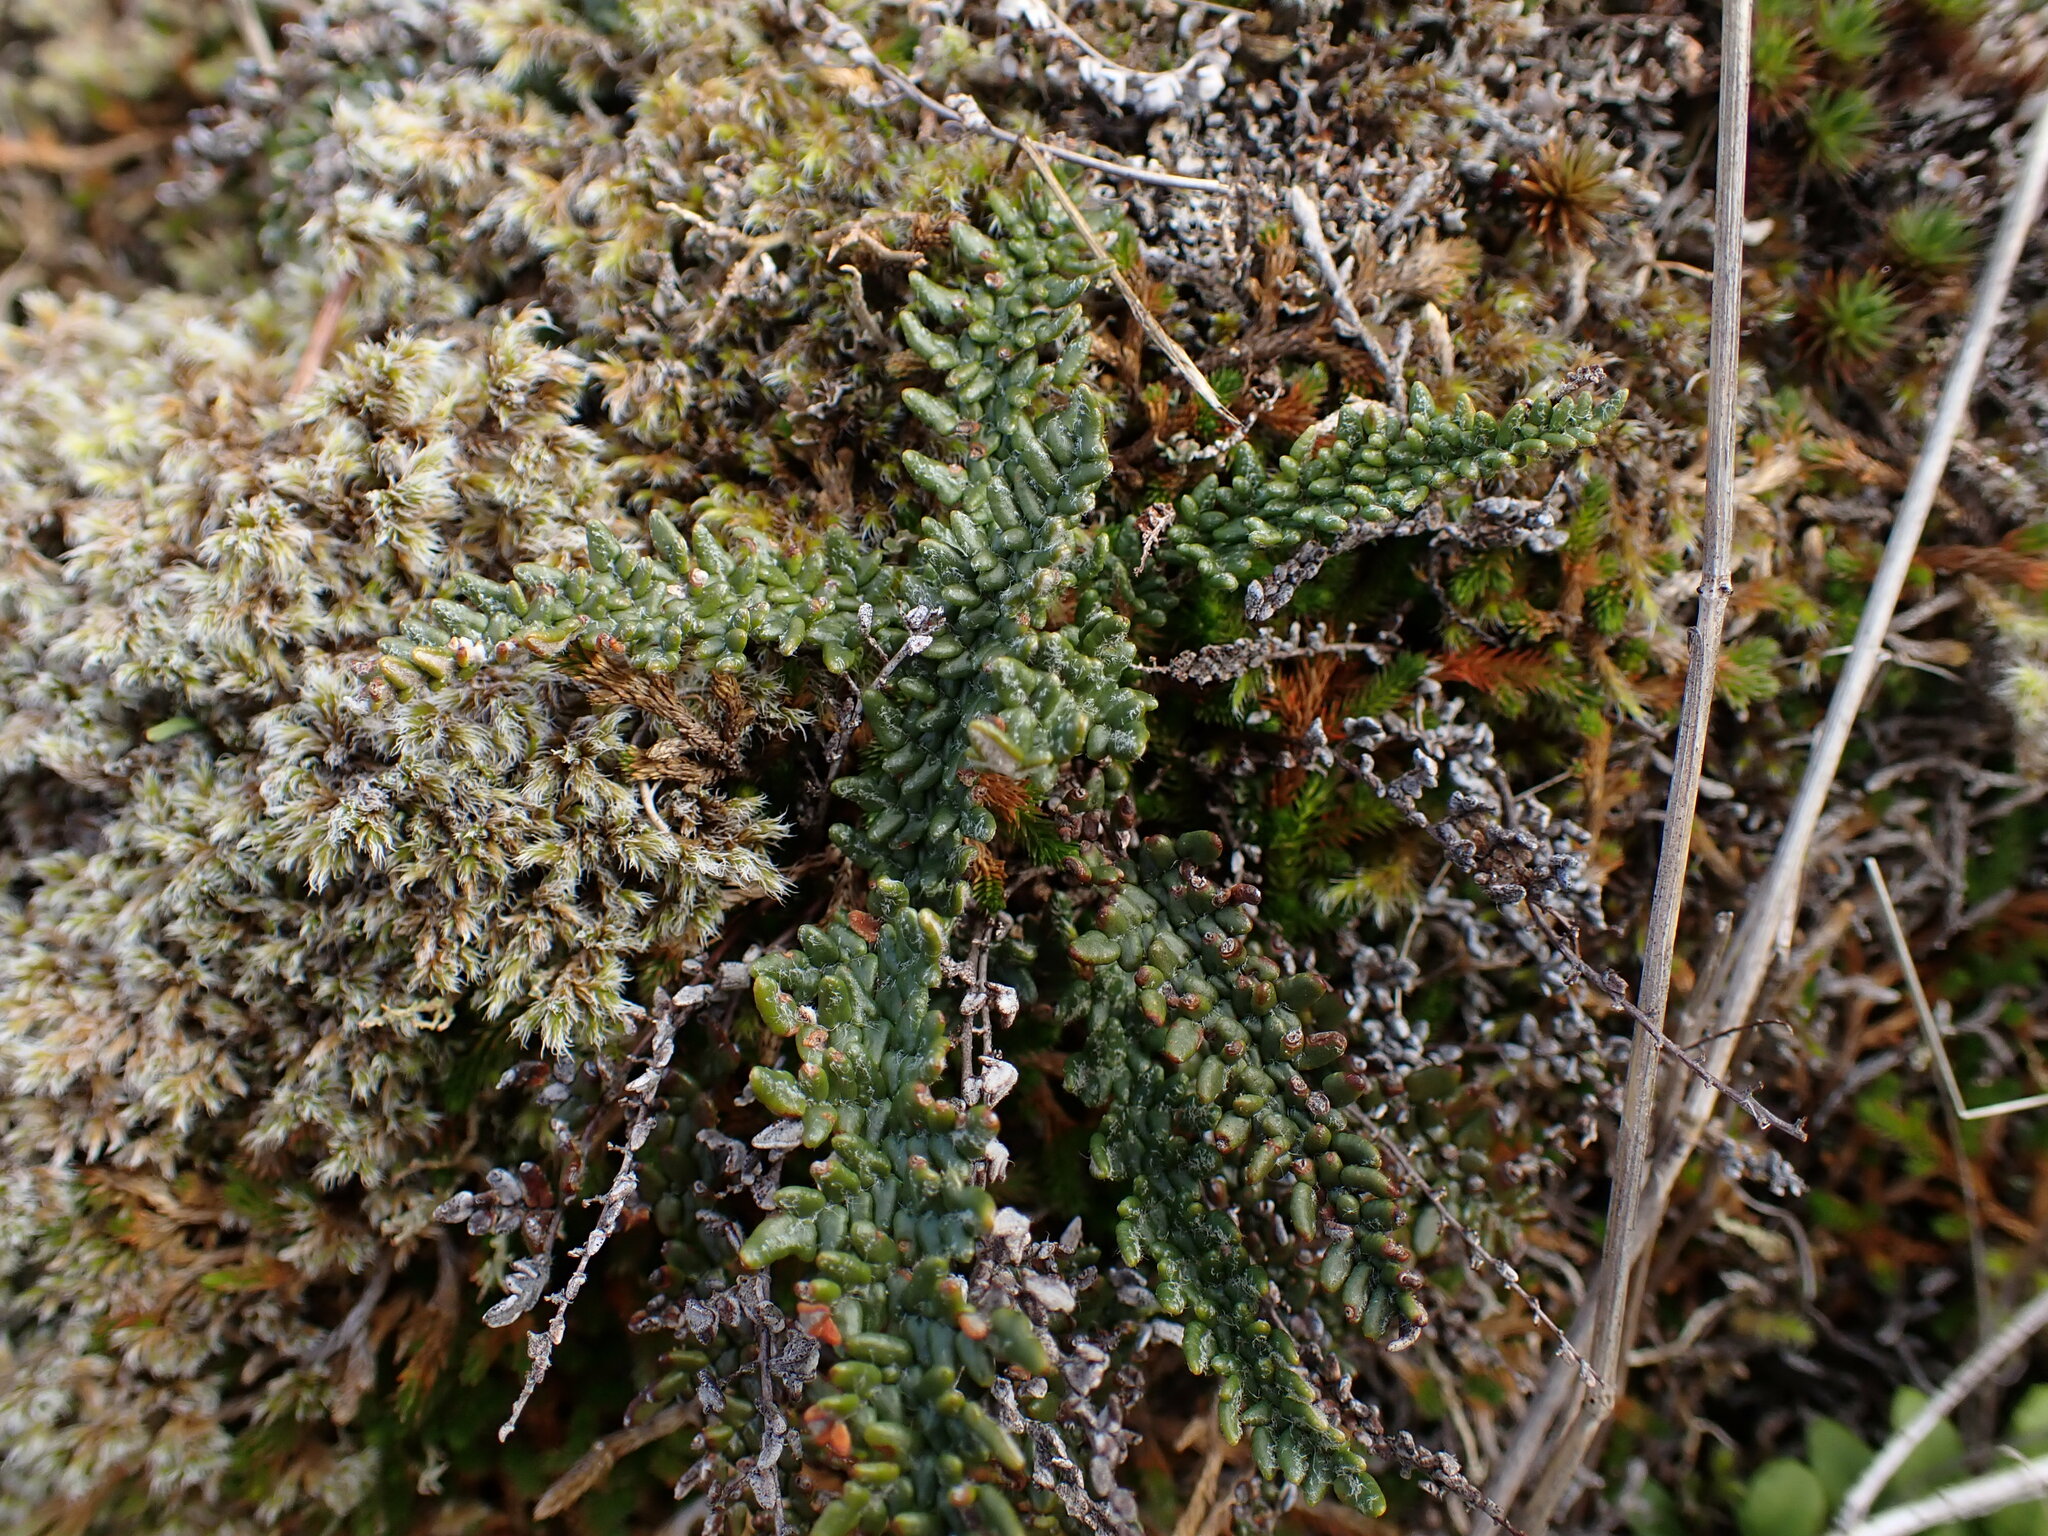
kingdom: Plantae
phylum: Tracheophyta
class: Polypodiopsida
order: Polypodiales
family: Pteridaceae
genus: Myriopteris
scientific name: Myriopteris gracillima
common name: Lace fern
